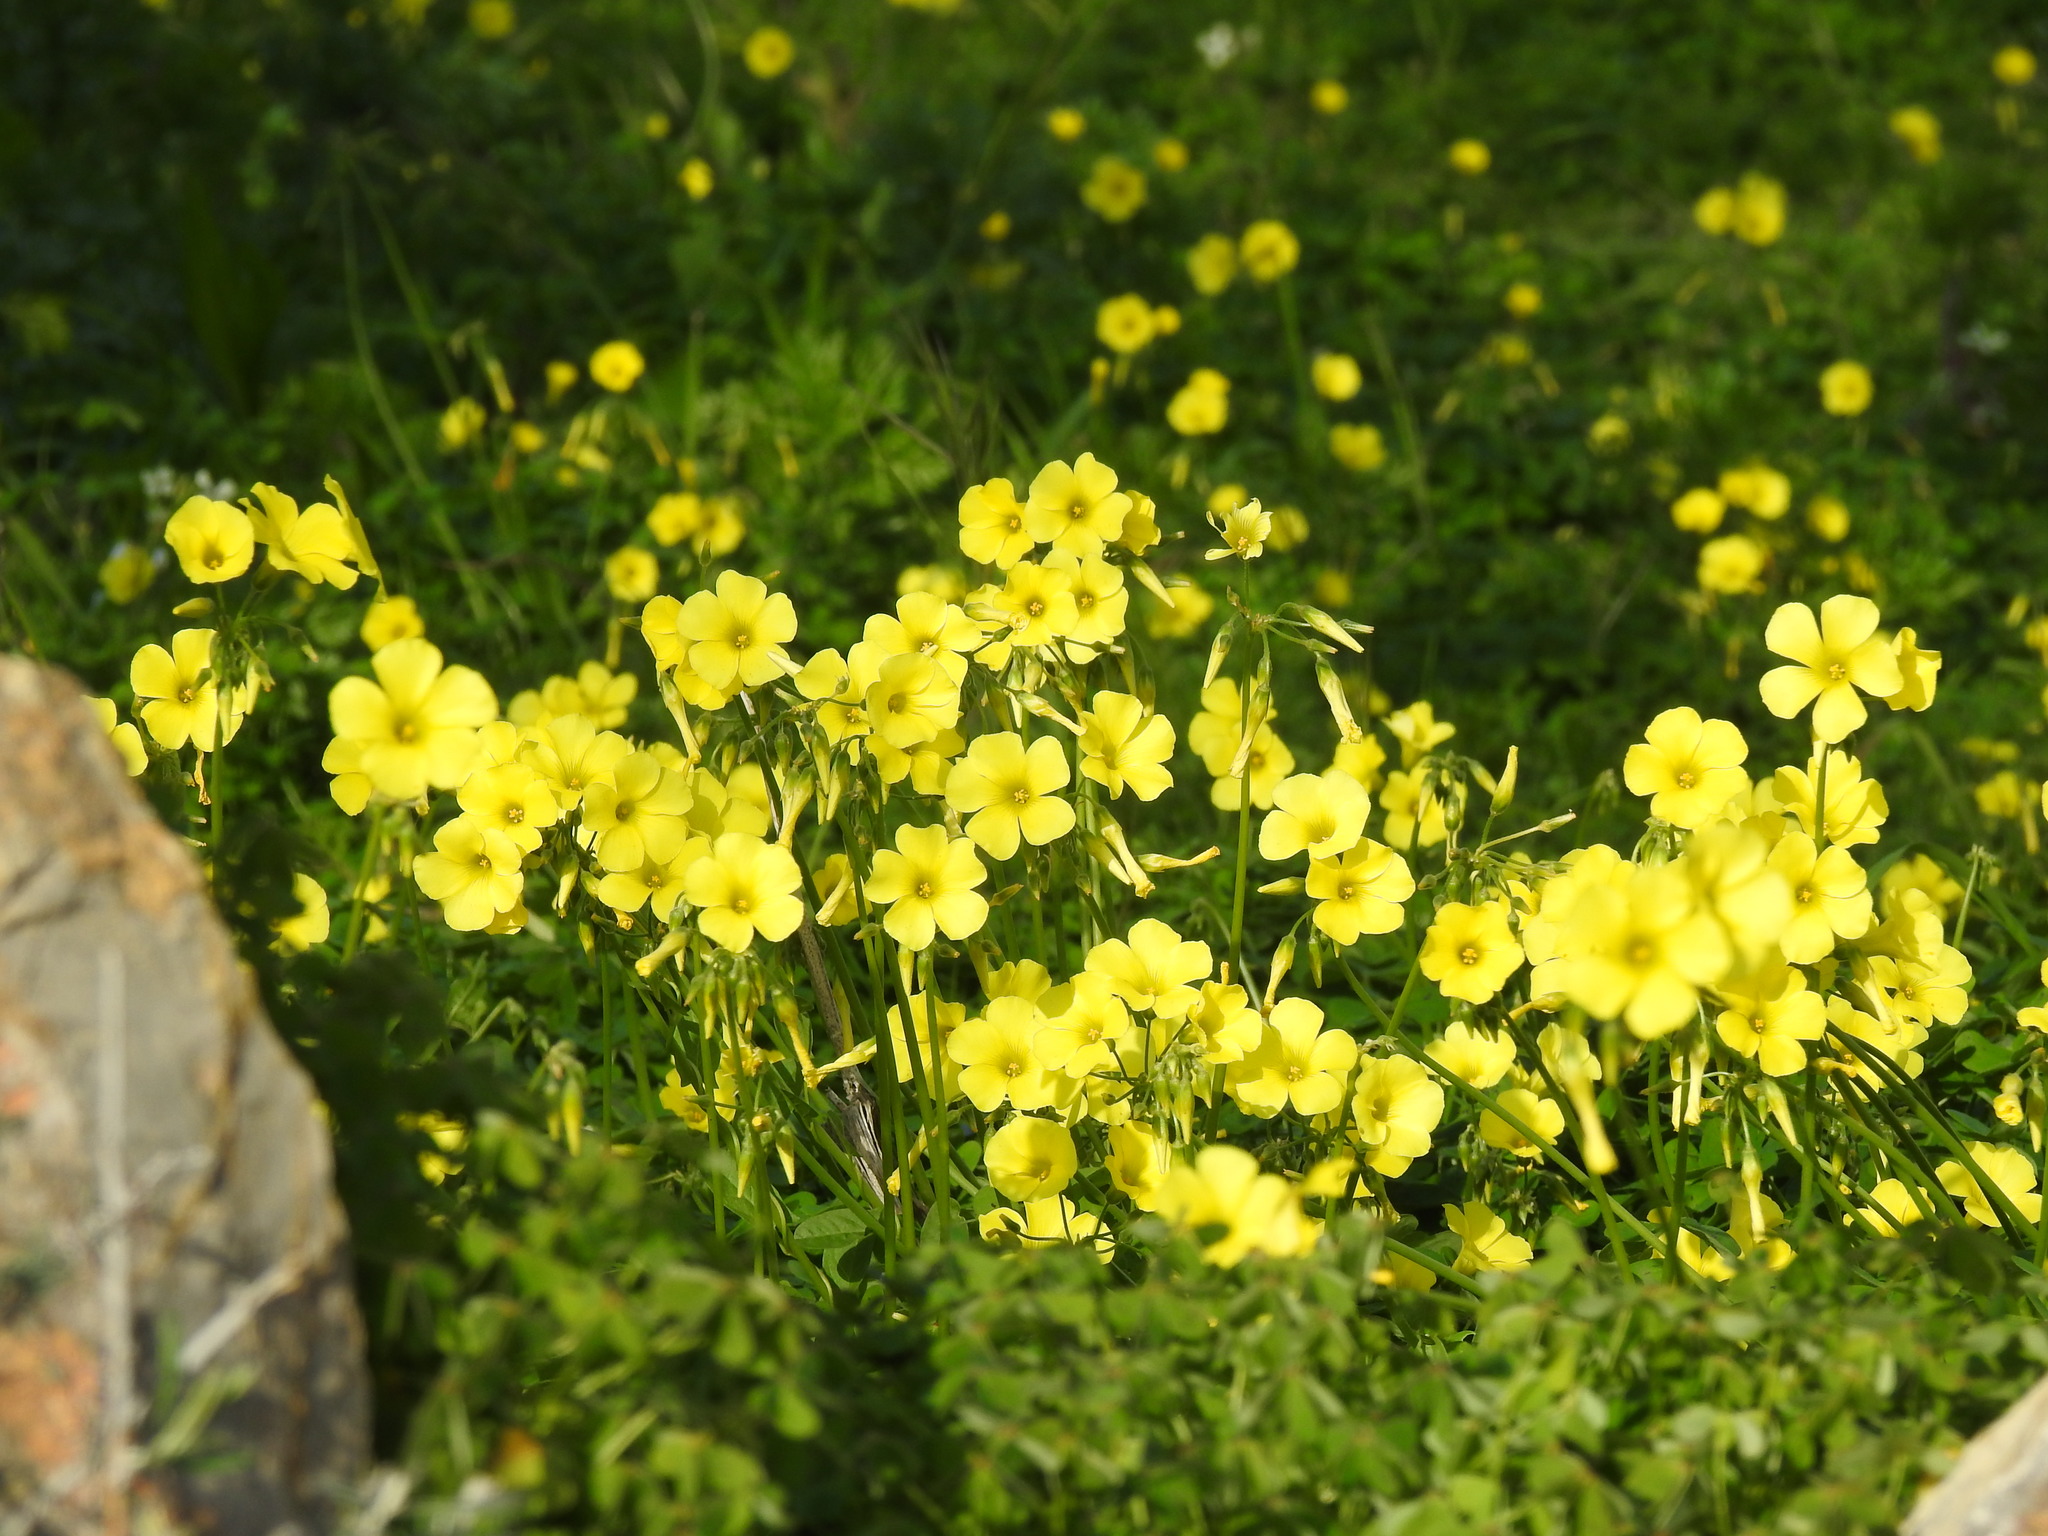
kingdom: Plantae
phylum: Tracheophyta
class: Magnoliopsida
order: Oxalidales
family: Oxalidaceae
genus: Oxalis
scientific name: Oxalis pes-caprae
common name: Bermuda-buttercup
